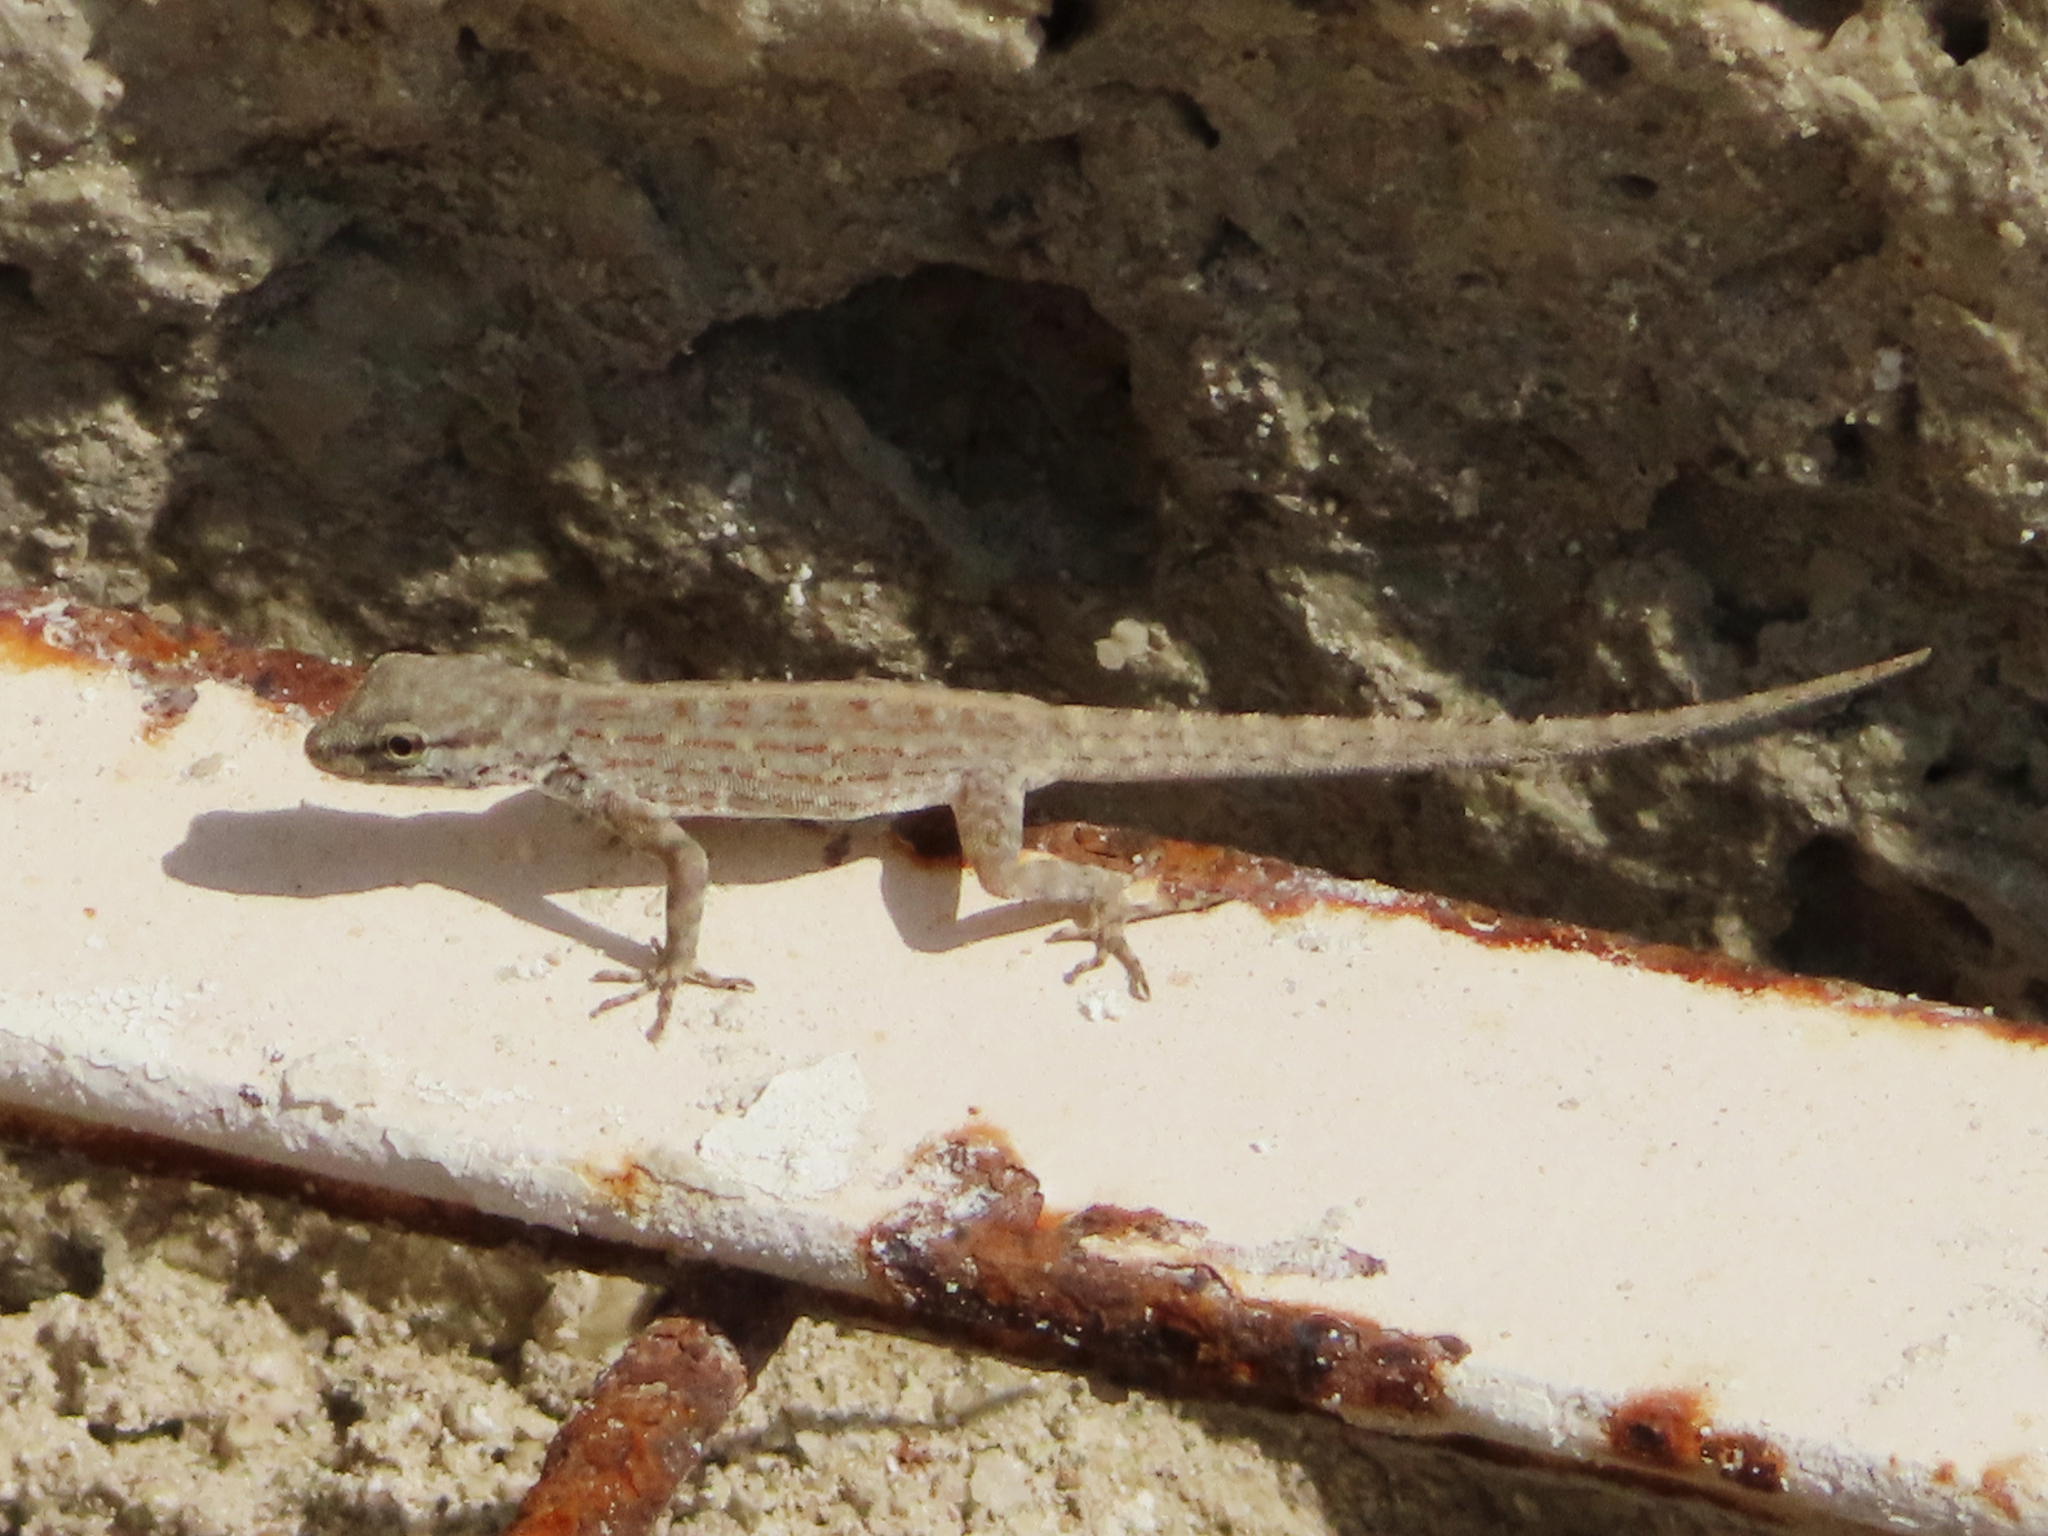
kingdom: Animalia
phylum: Chordata
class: Squamata
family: Sphaerodactylidae
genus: Pristurus
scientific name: Pristurus rupestris
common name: Blanford’s semaphore gecko
